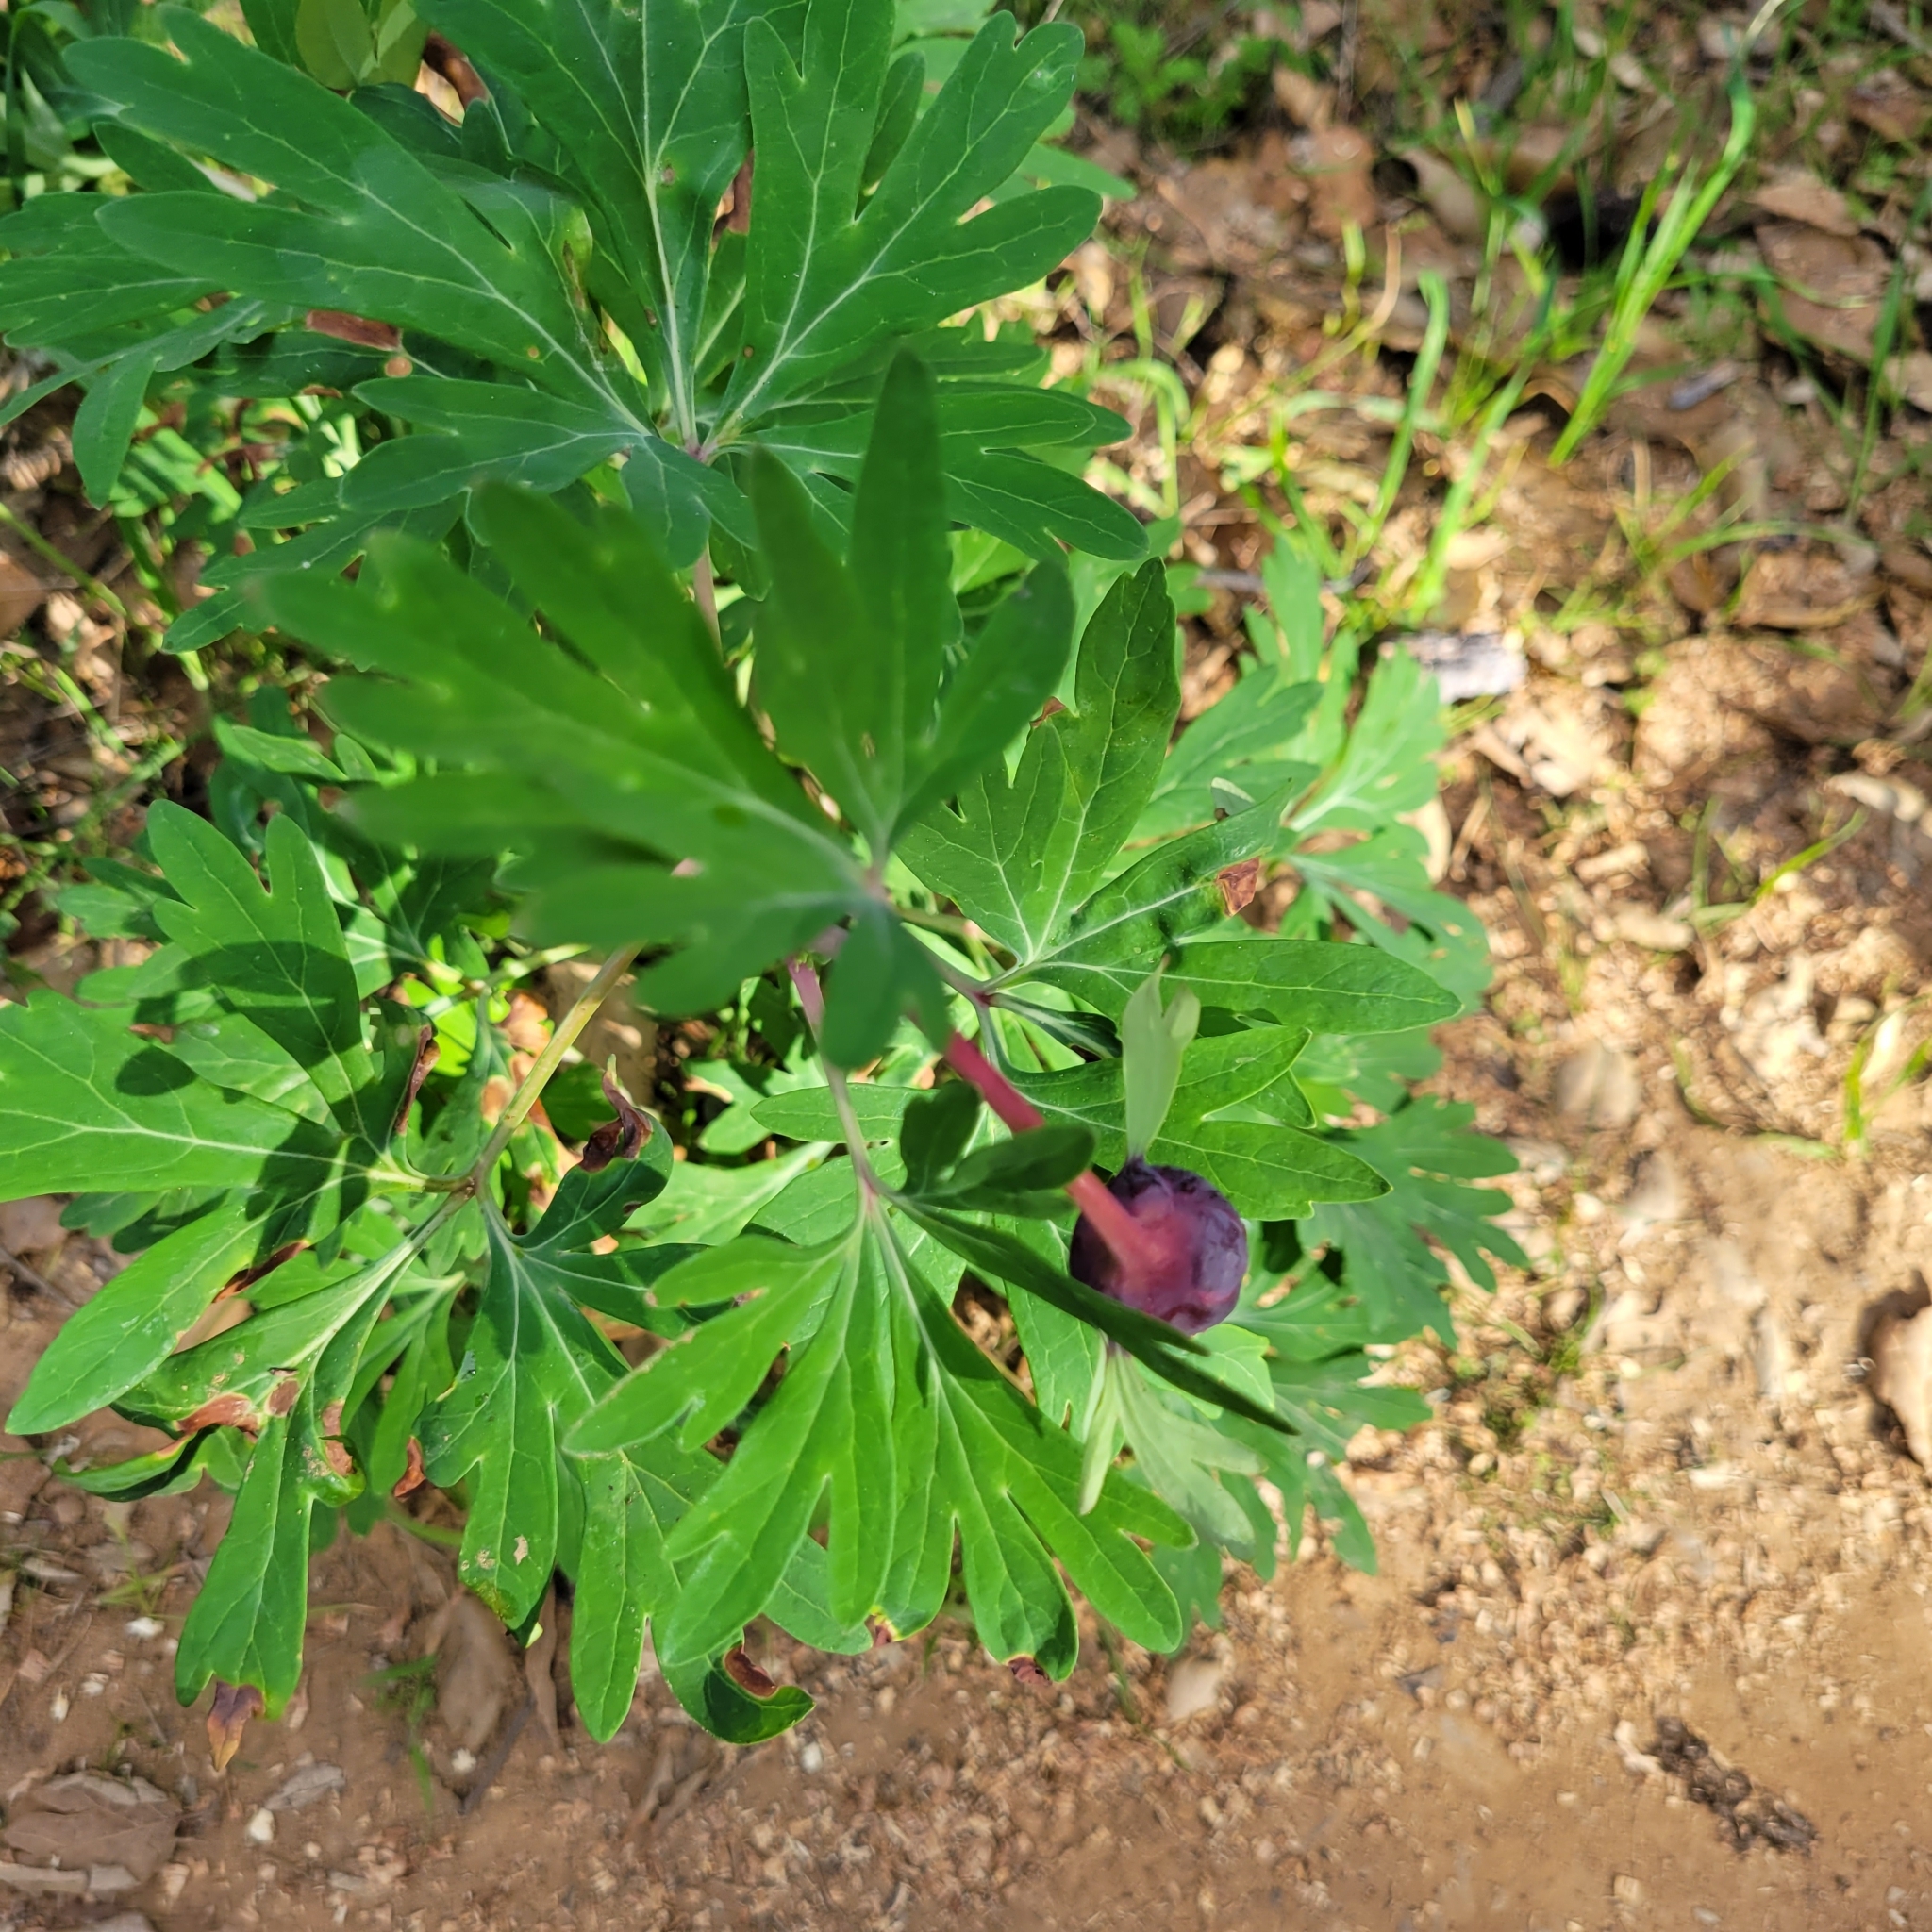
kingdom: Plantae
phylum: Tracheophyta
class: Magnoliopsida
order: Saxifragales
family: Paeoniaceae
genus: Paeonia
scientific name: Paeonia californica
